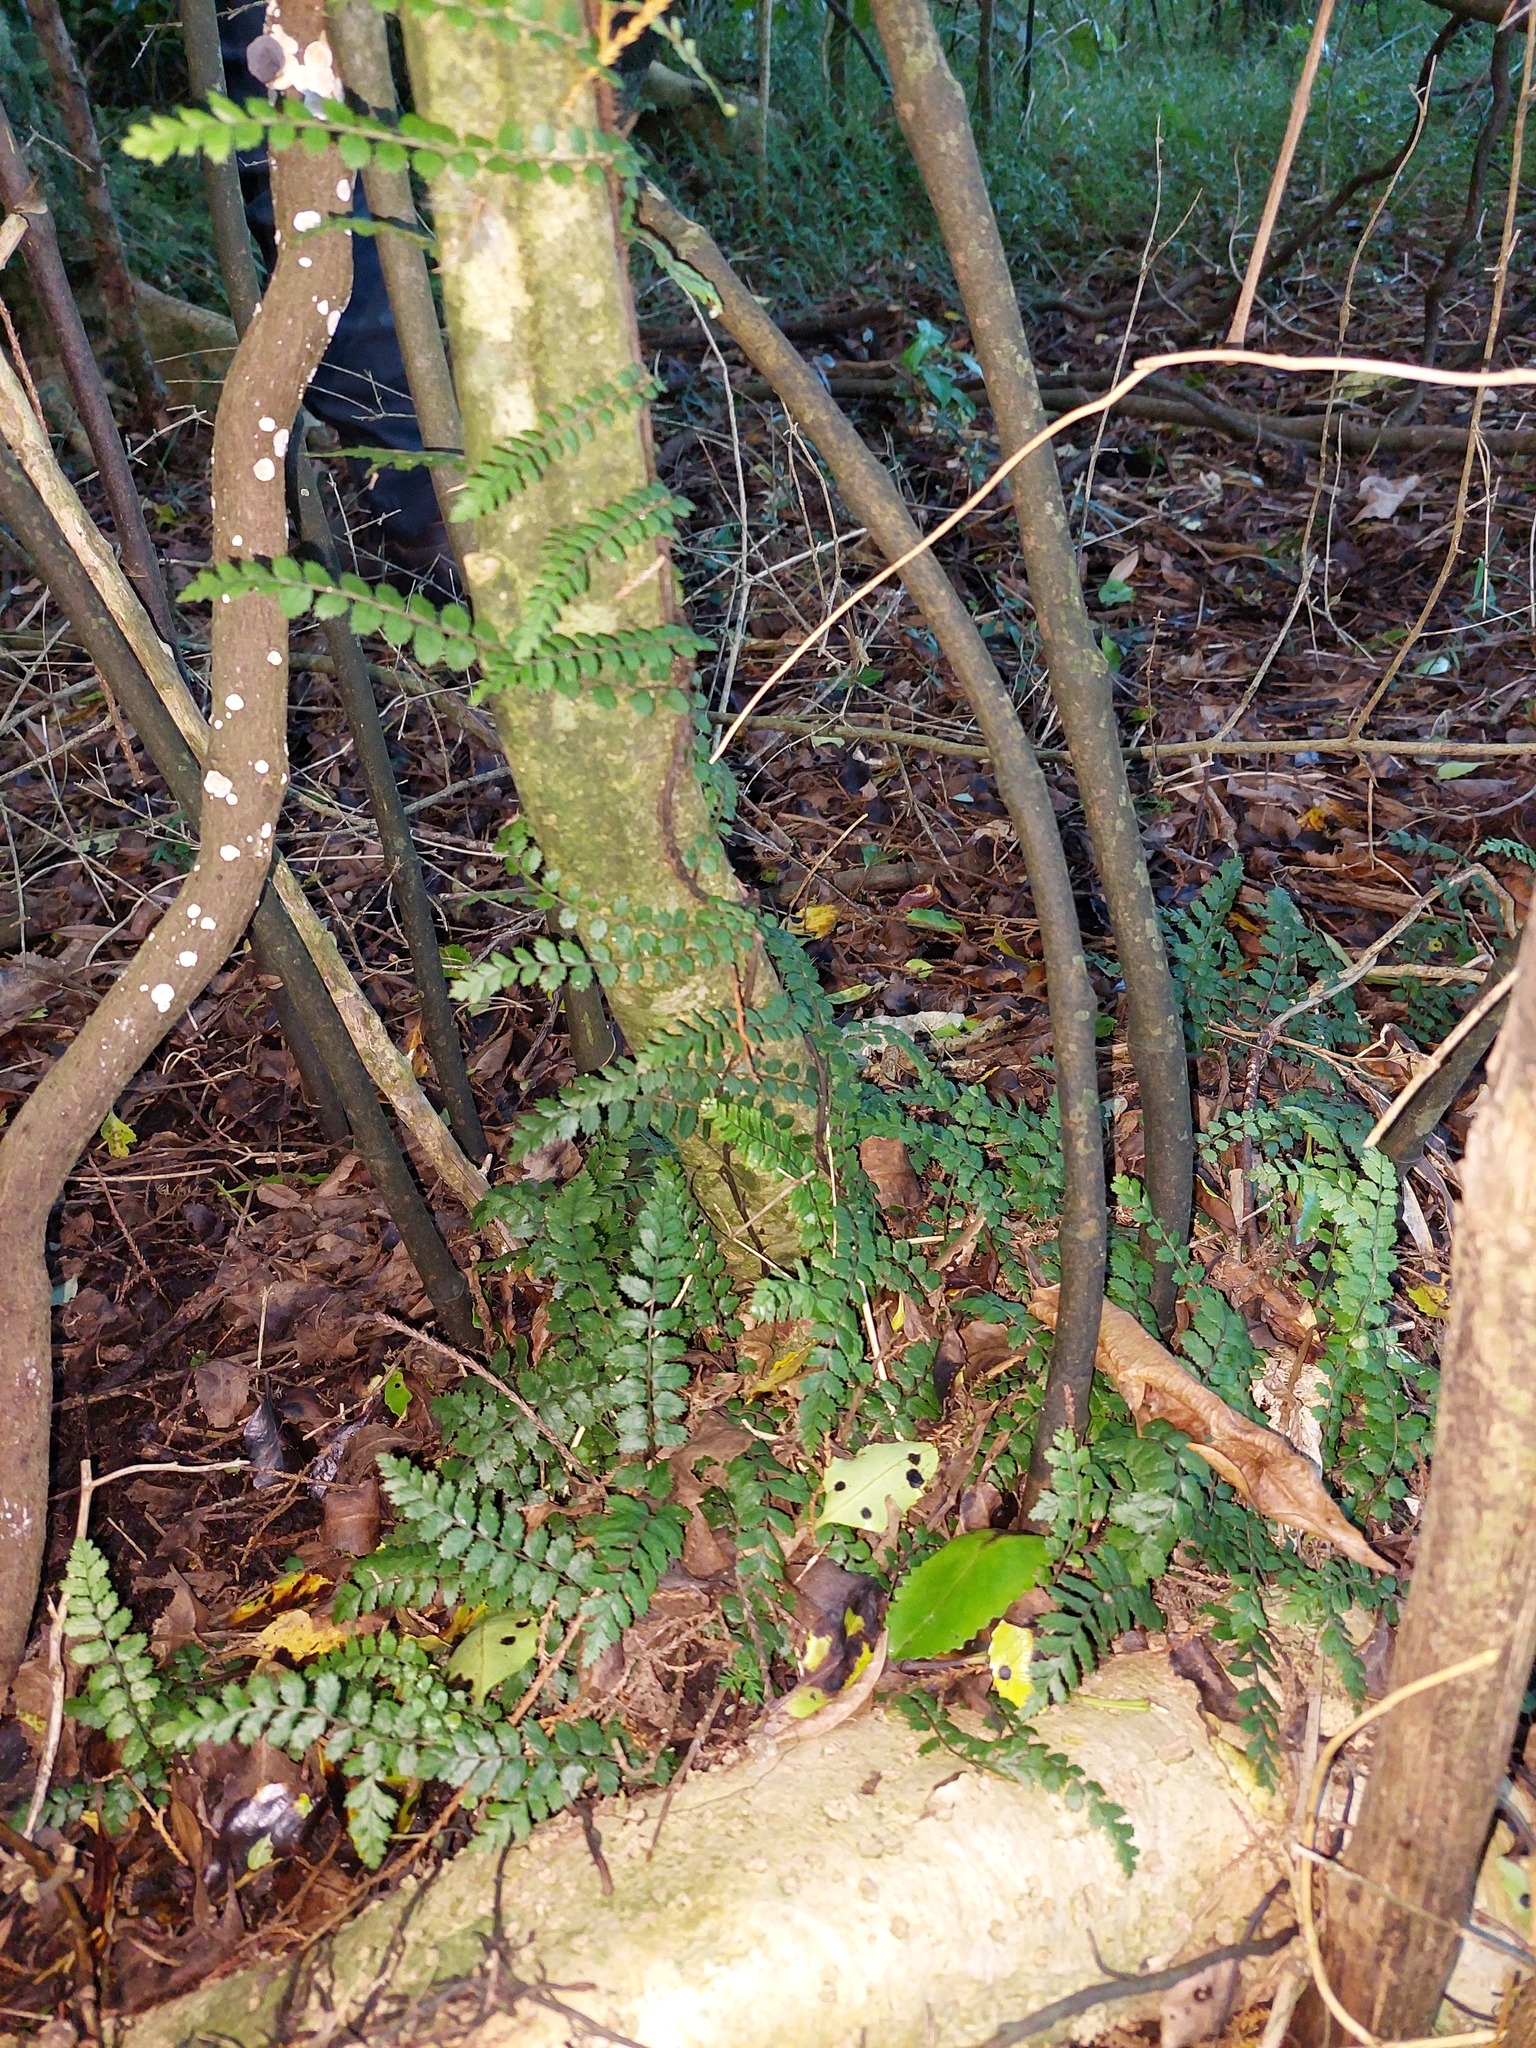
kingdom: Plantae
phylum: Tracheophyta
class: Polypodiopsida
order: Polypodiales
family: Blechnaceae
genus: Icarus
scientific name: Icarus filiformis
